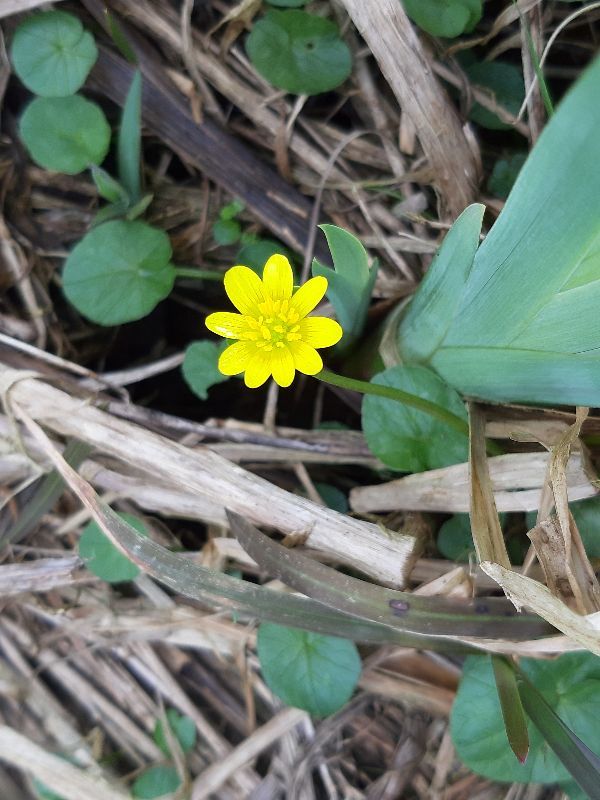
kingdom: Plantae
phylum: Tracheophyta
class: Magnoliopsida
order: Ranunculales
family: Ranunculaceae
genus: Ficaria
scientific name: Ficaria verna
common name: Lesser celandine
